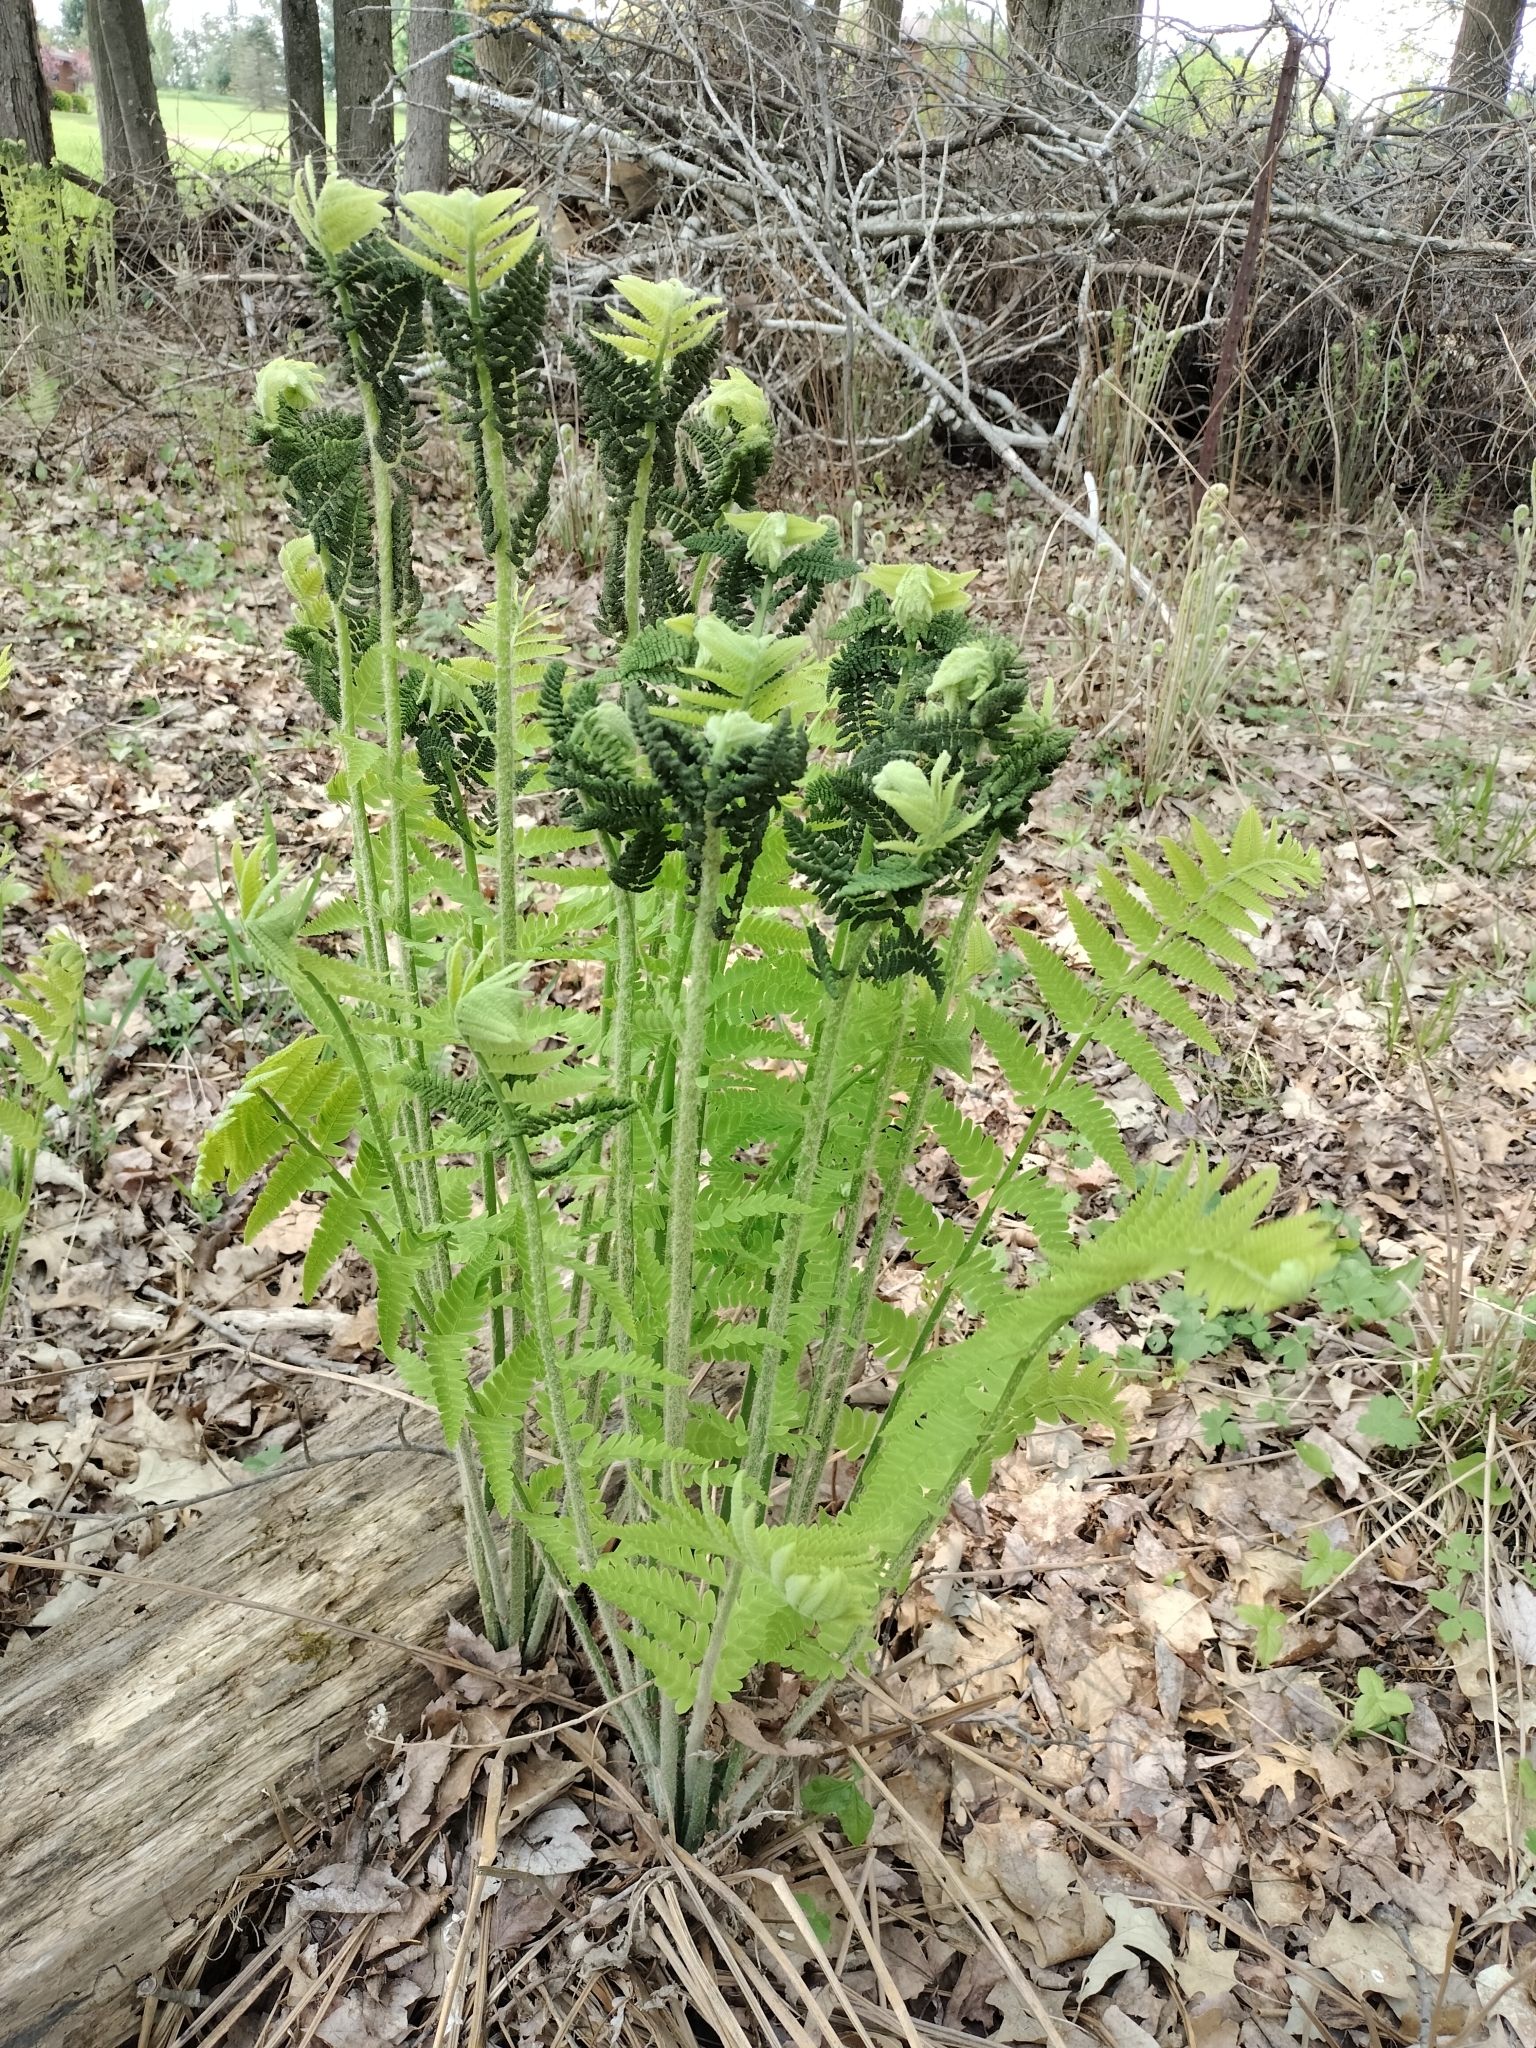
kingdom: Plantae
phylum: Tracheophyta
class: Polypodiopsida
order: Osmundales
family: Osmundaceae
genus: Claytosmunda
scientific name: Claytosmunda claytoniana
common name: Clayton's fern
